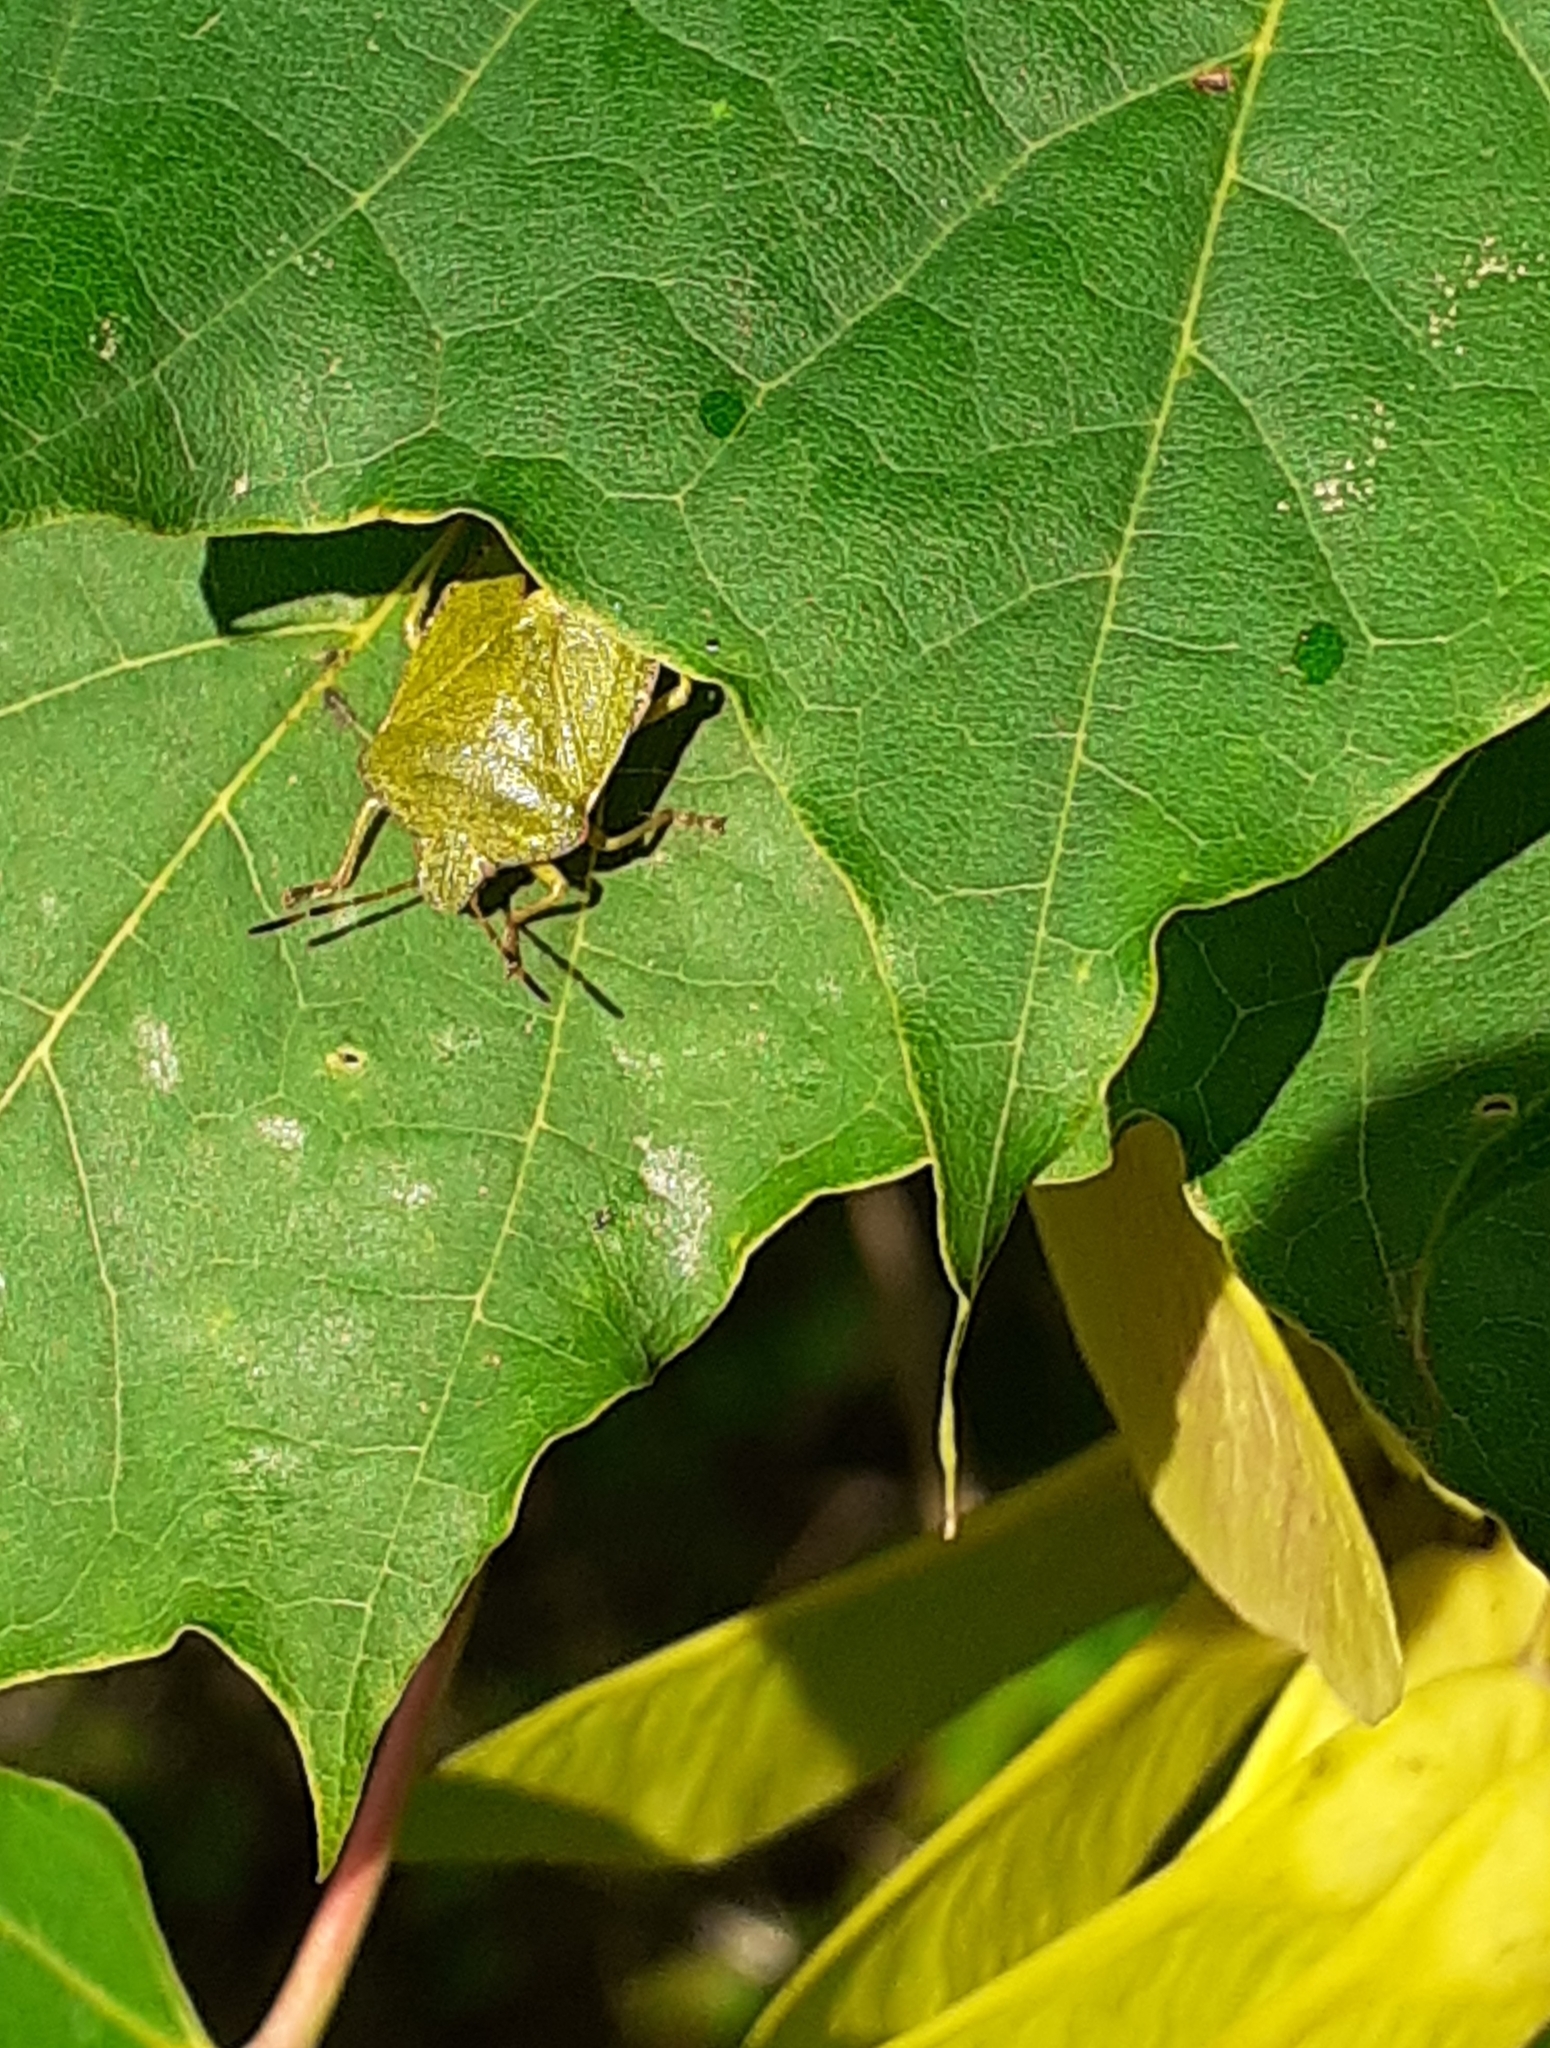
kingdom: Animalia
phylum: Arthropoda
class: Insecta
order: Hemiptera
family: Pentatomidae
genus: Palomena
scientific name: Palomena prasina
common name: Green shieldbug
